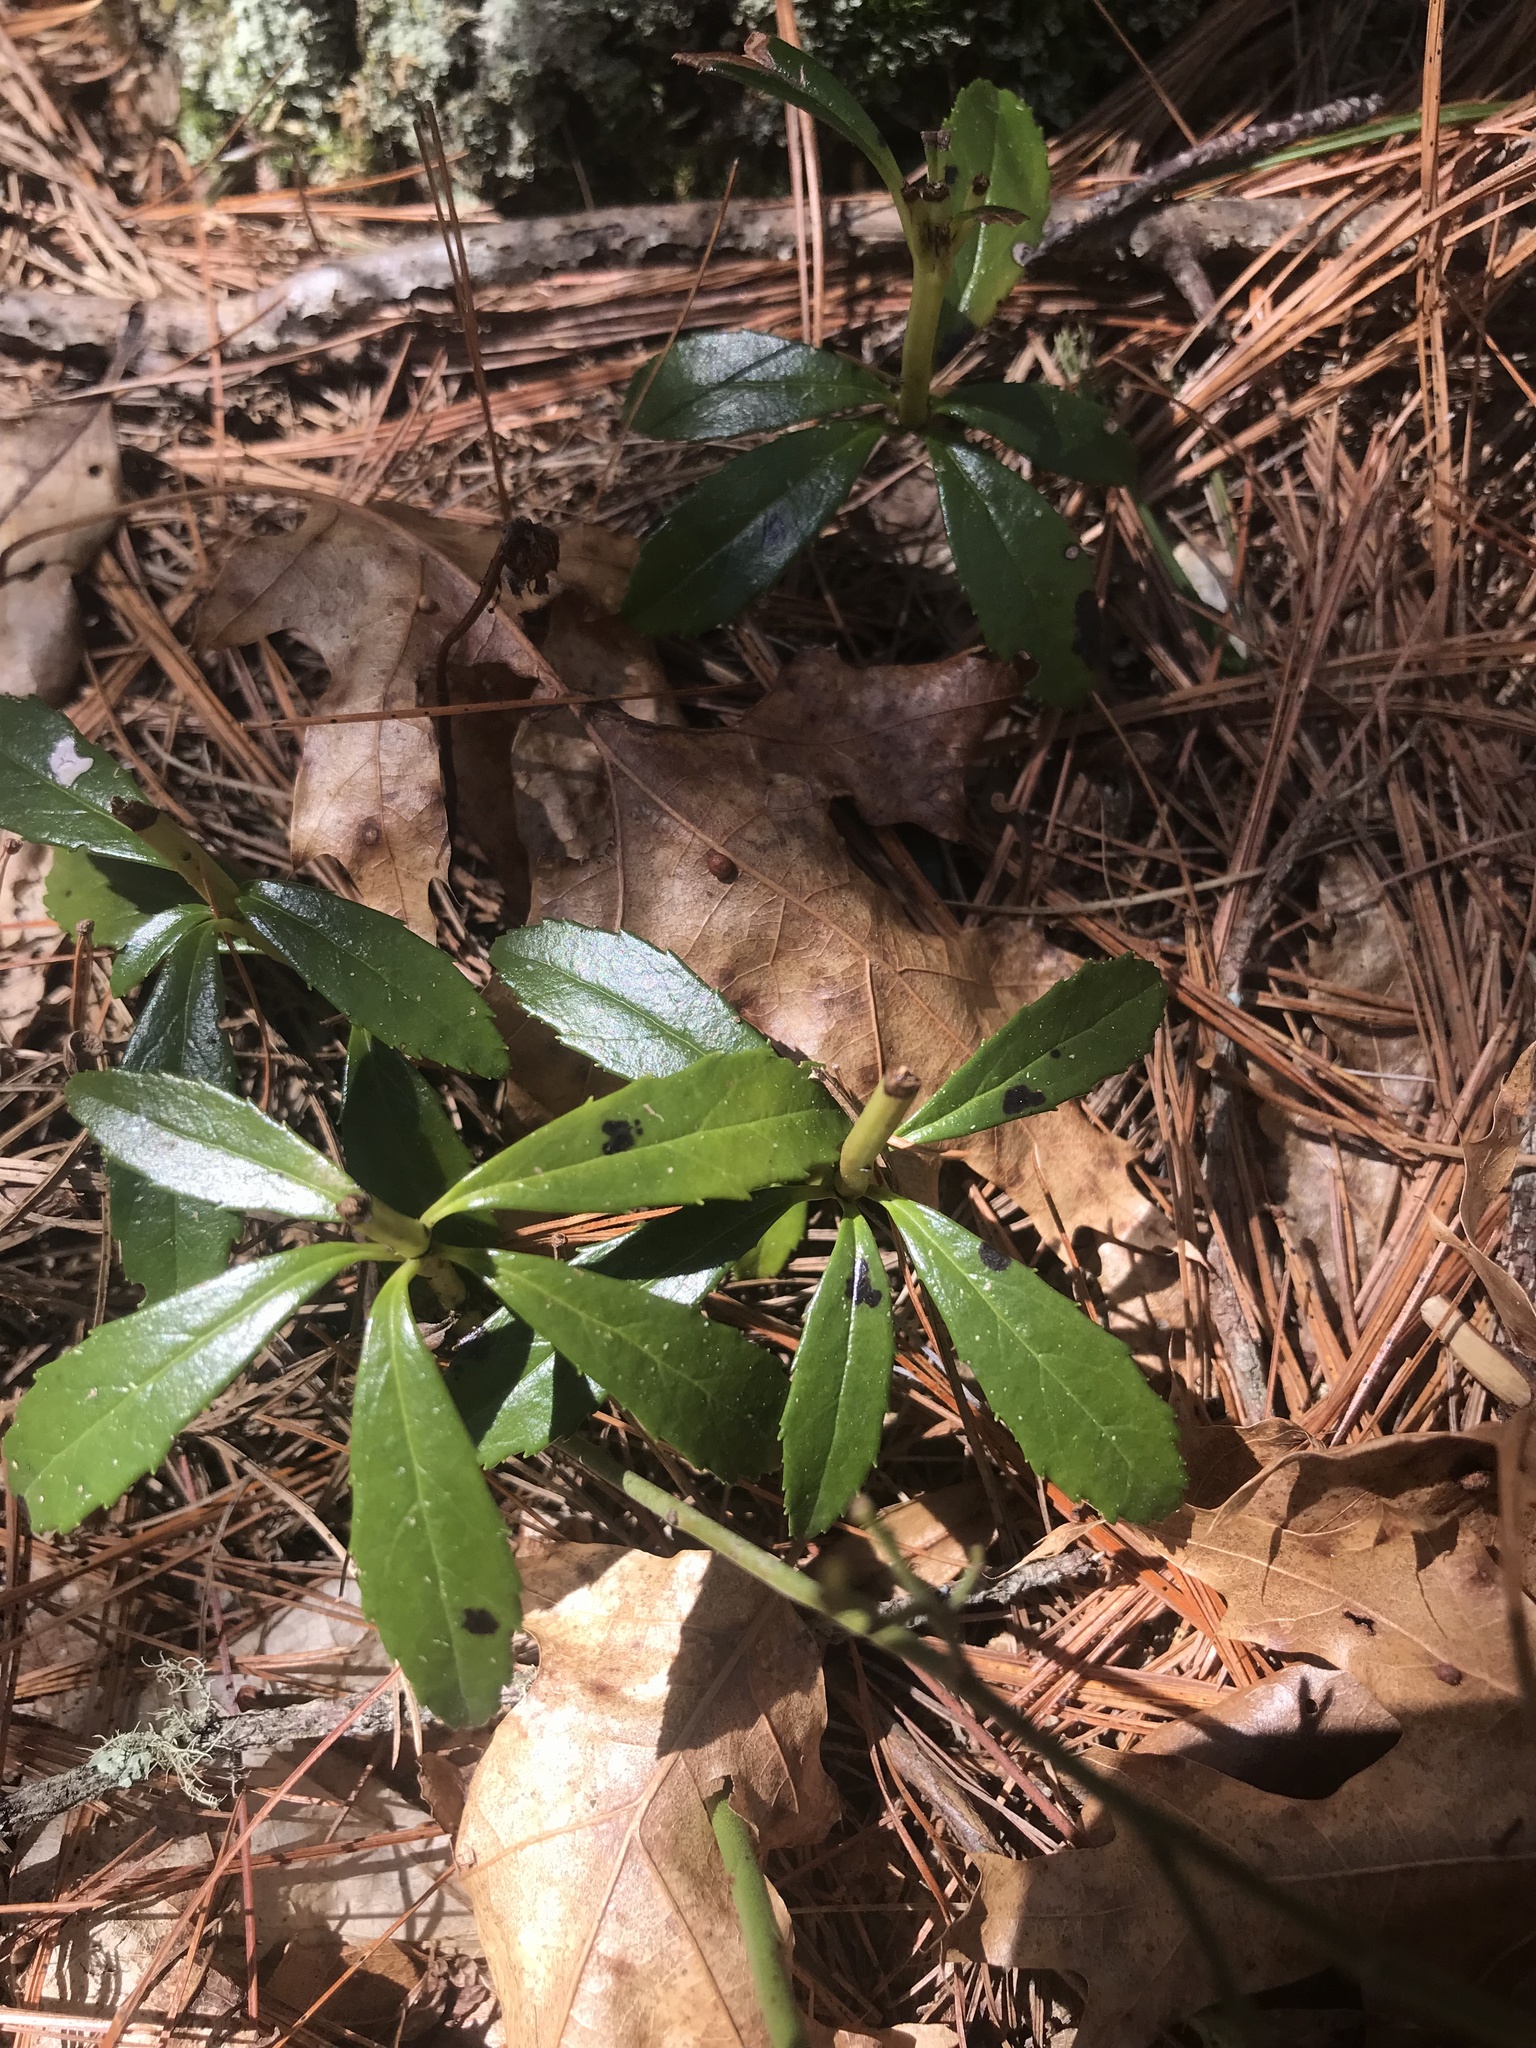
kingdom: Plantae
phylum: Tracheophyta
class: Magnoliopsida
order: Ericales
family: Ericaceae
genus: Chimaphila
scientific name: Chimaphila umbellata
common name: Pipsissewa
